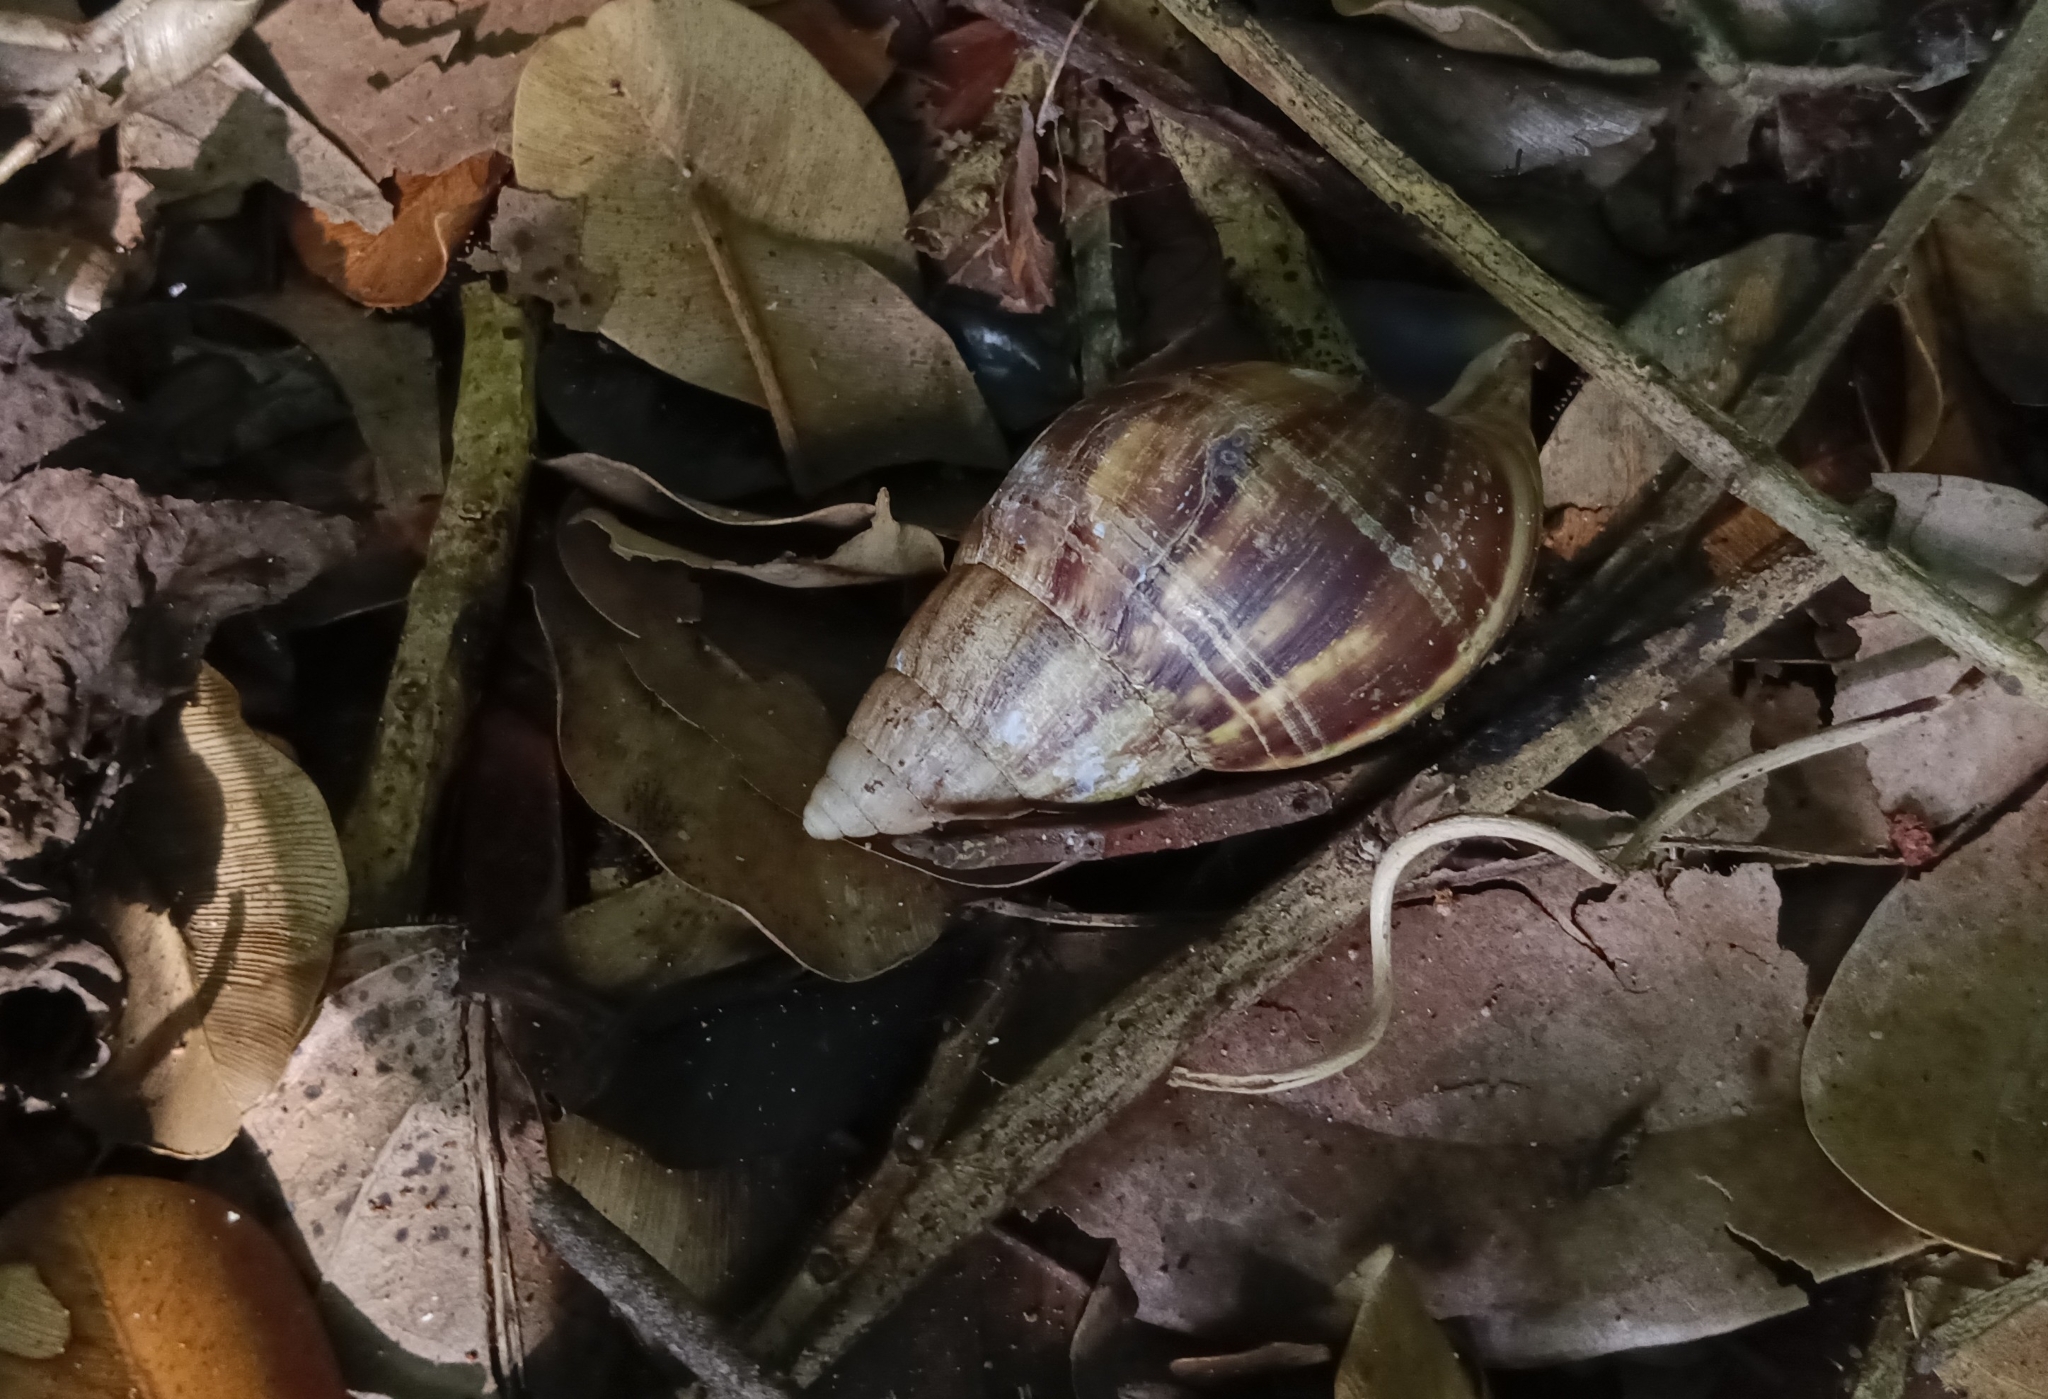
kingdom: Animalia
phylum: Mollusca
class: Gastropoda
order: Stylommatophora
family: Achatinidae
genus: Lissachatina
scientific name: Lissachatina fulica
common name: Giant african snail
